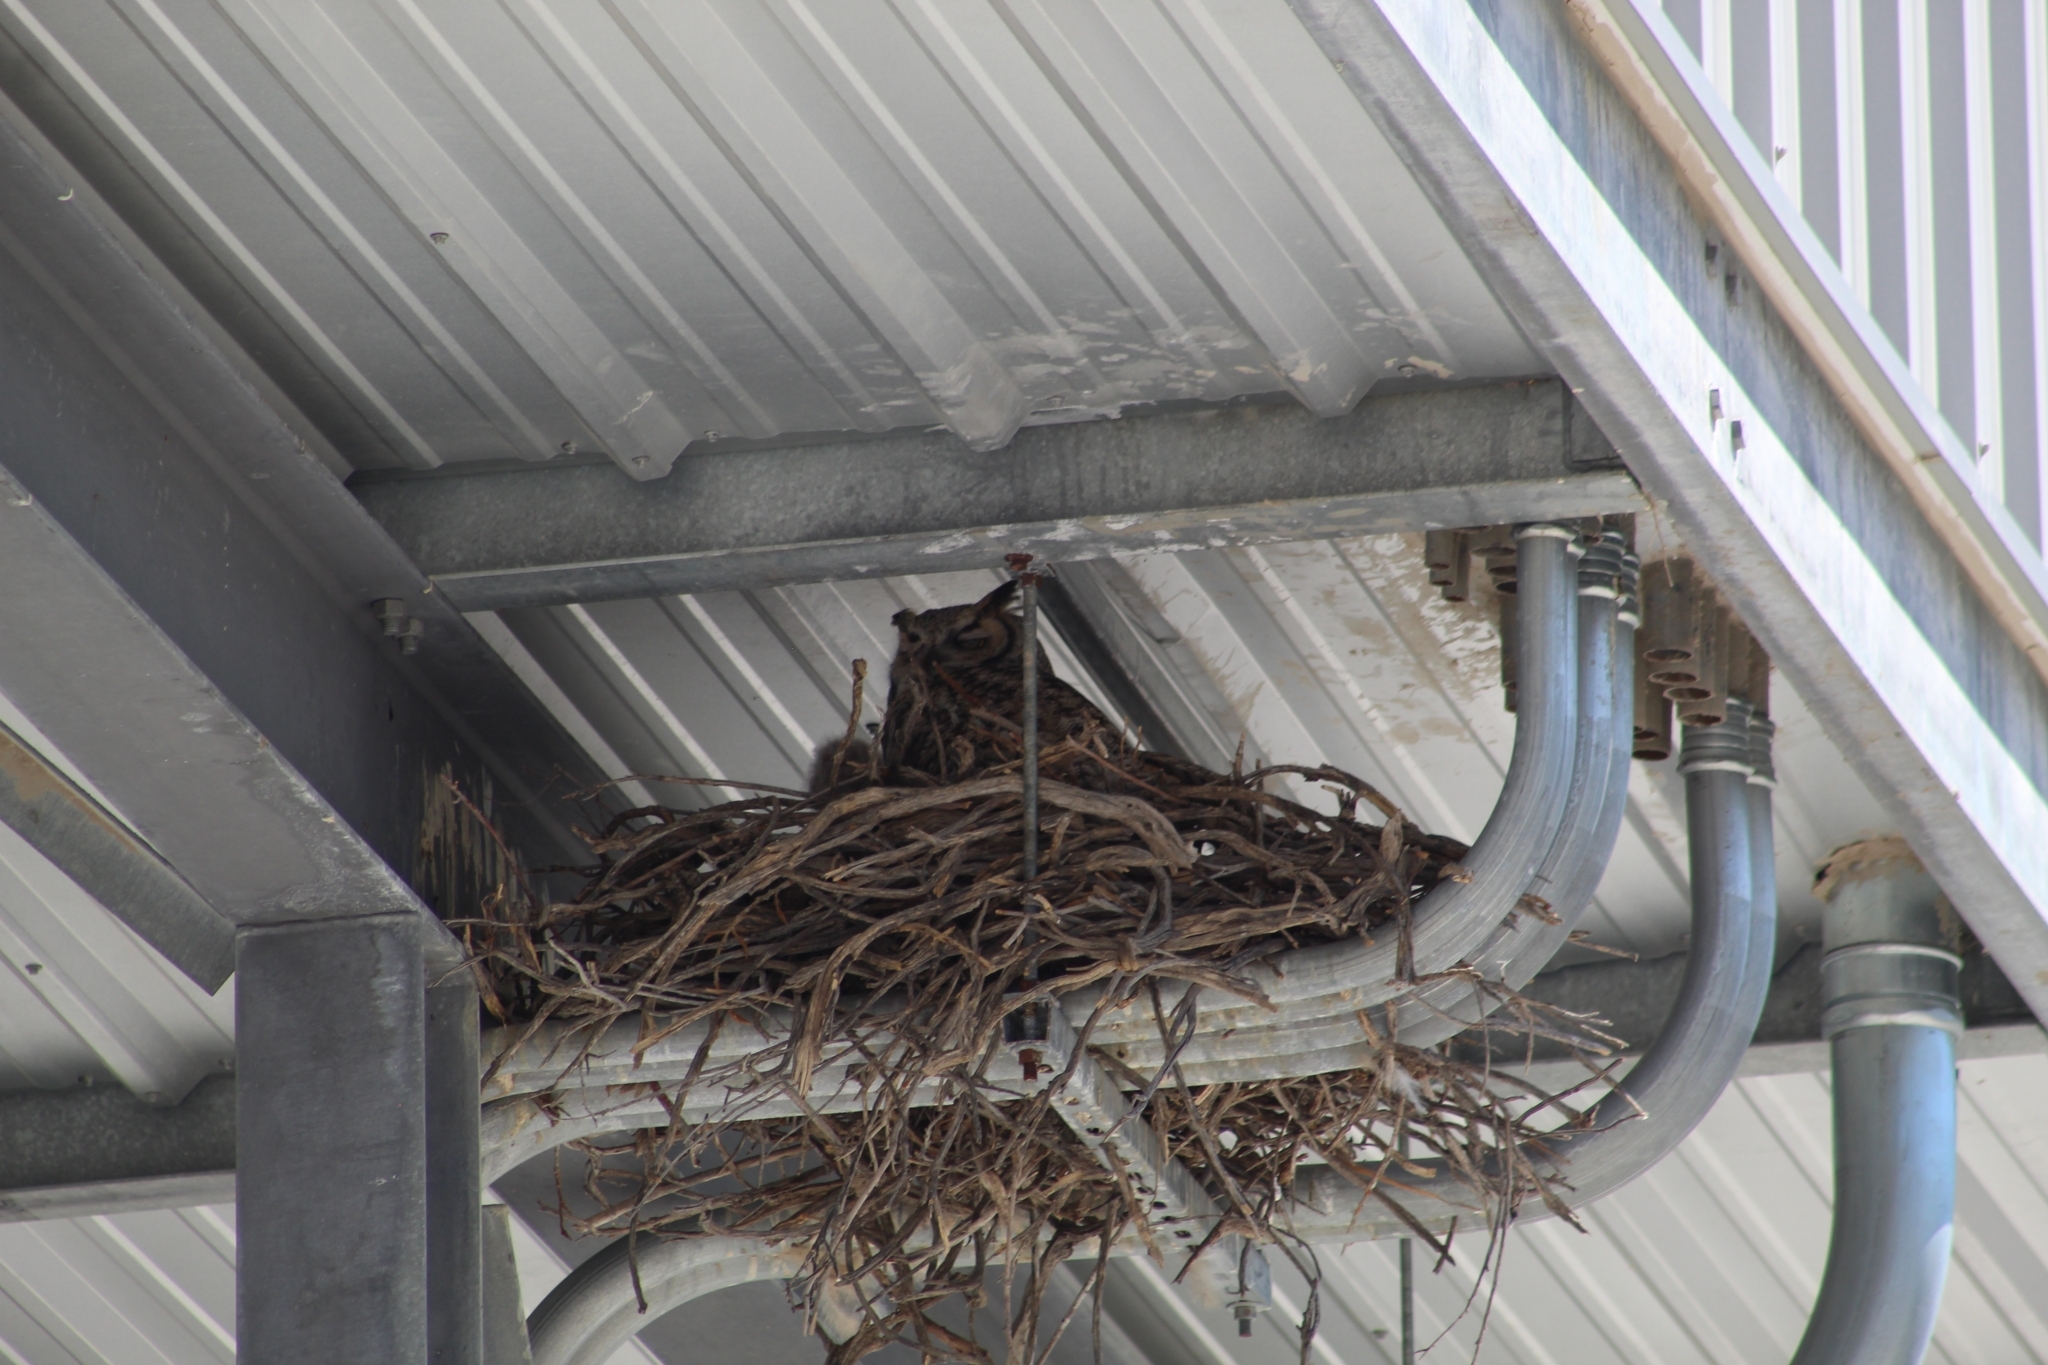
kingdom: Animalia
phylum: Chordata
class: Aves
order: Strigiformes
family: Strigidae
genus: Bubo
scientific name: Bubo virginianus
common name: Great horned owl
